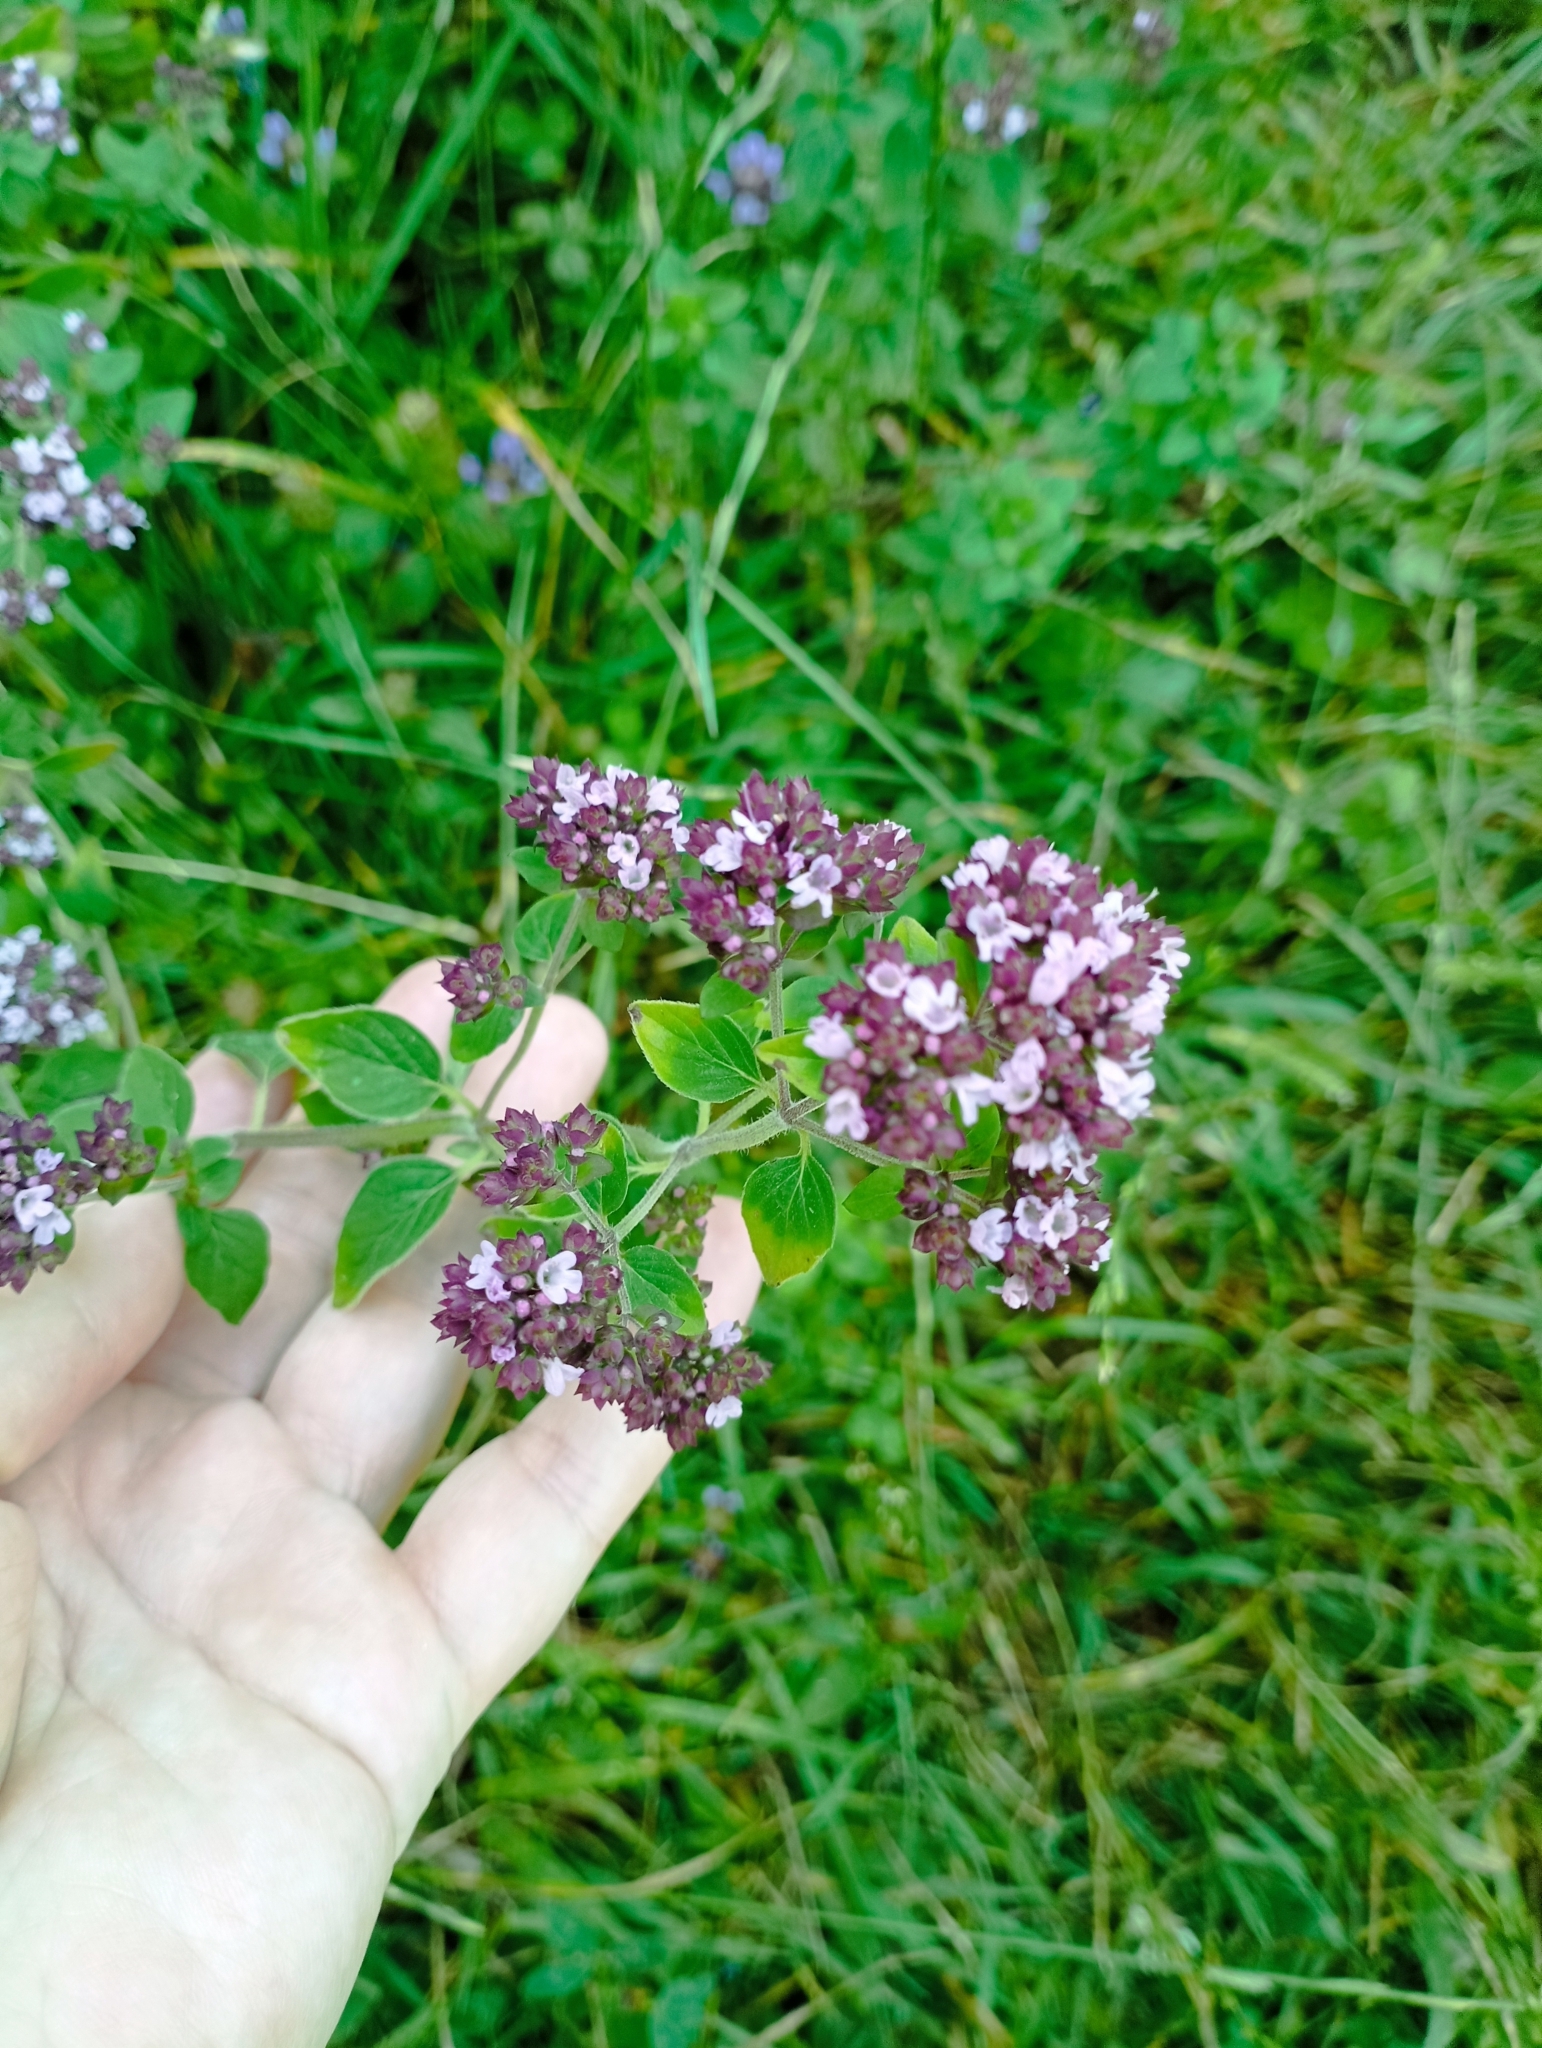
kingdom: Plantae
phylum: Tracheophyta
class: Magnoliopsida
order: Lamiales
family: Lamiaceae
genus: Origanum
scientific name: Origanum vulgare
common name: Wild marjoram
